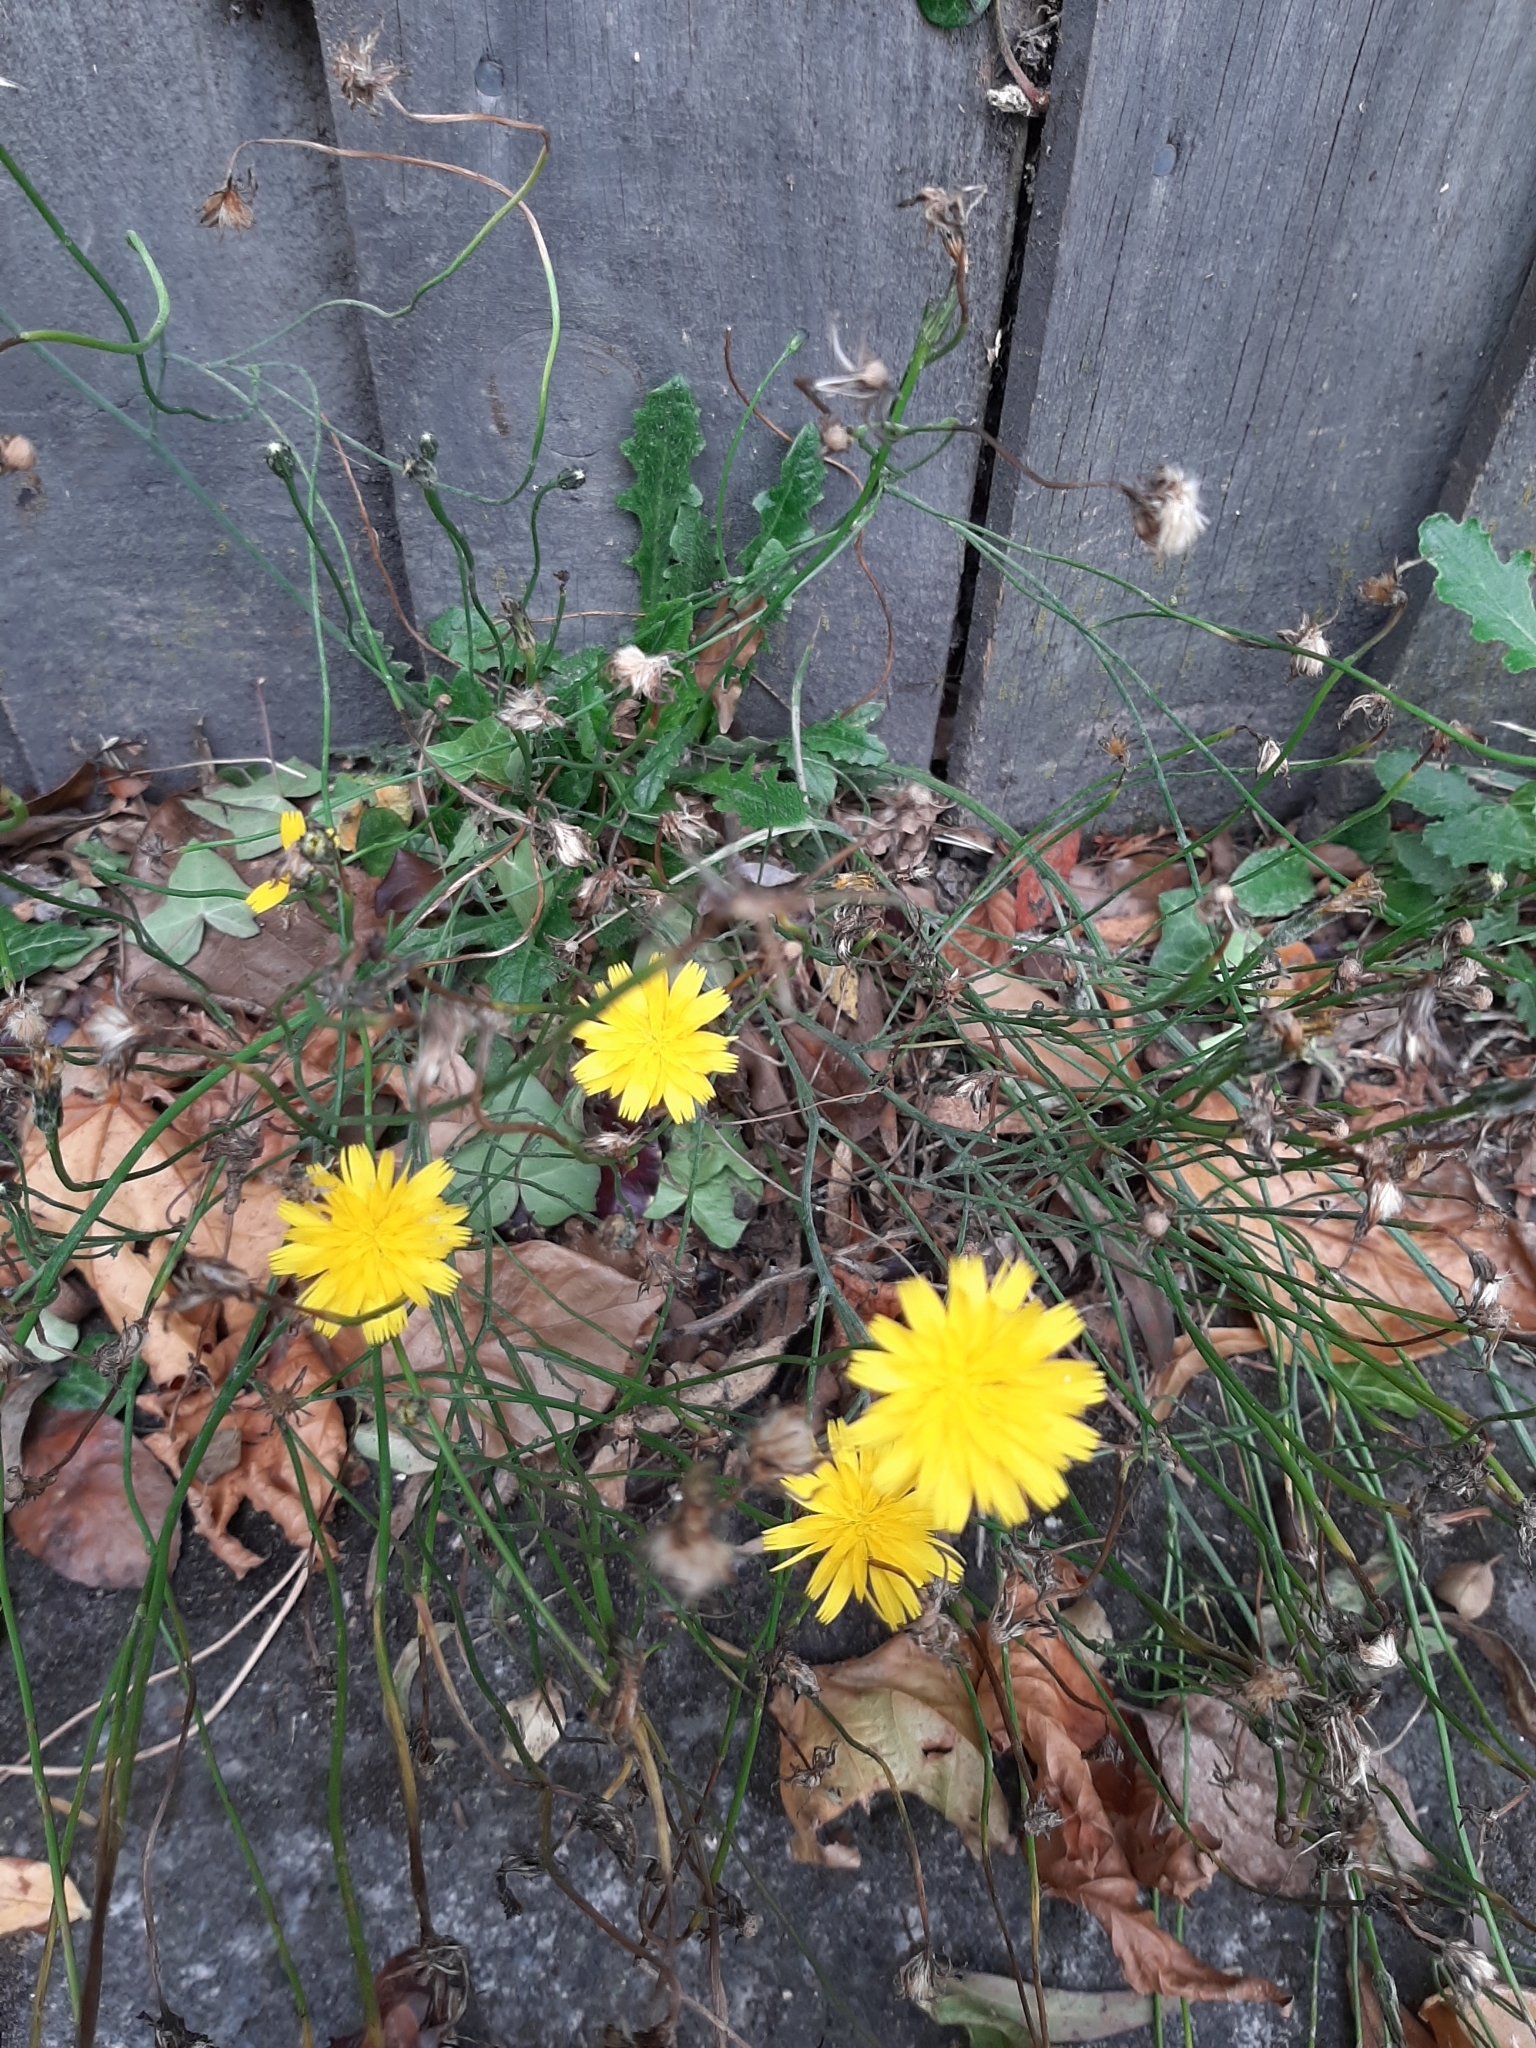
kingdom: Plantae
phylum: Tracheophyta
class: Magnoliopsida
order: Asterales
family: Asteraceae
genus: Hypochaeris
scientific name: Hypochaeris radicata
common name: Flatweed
